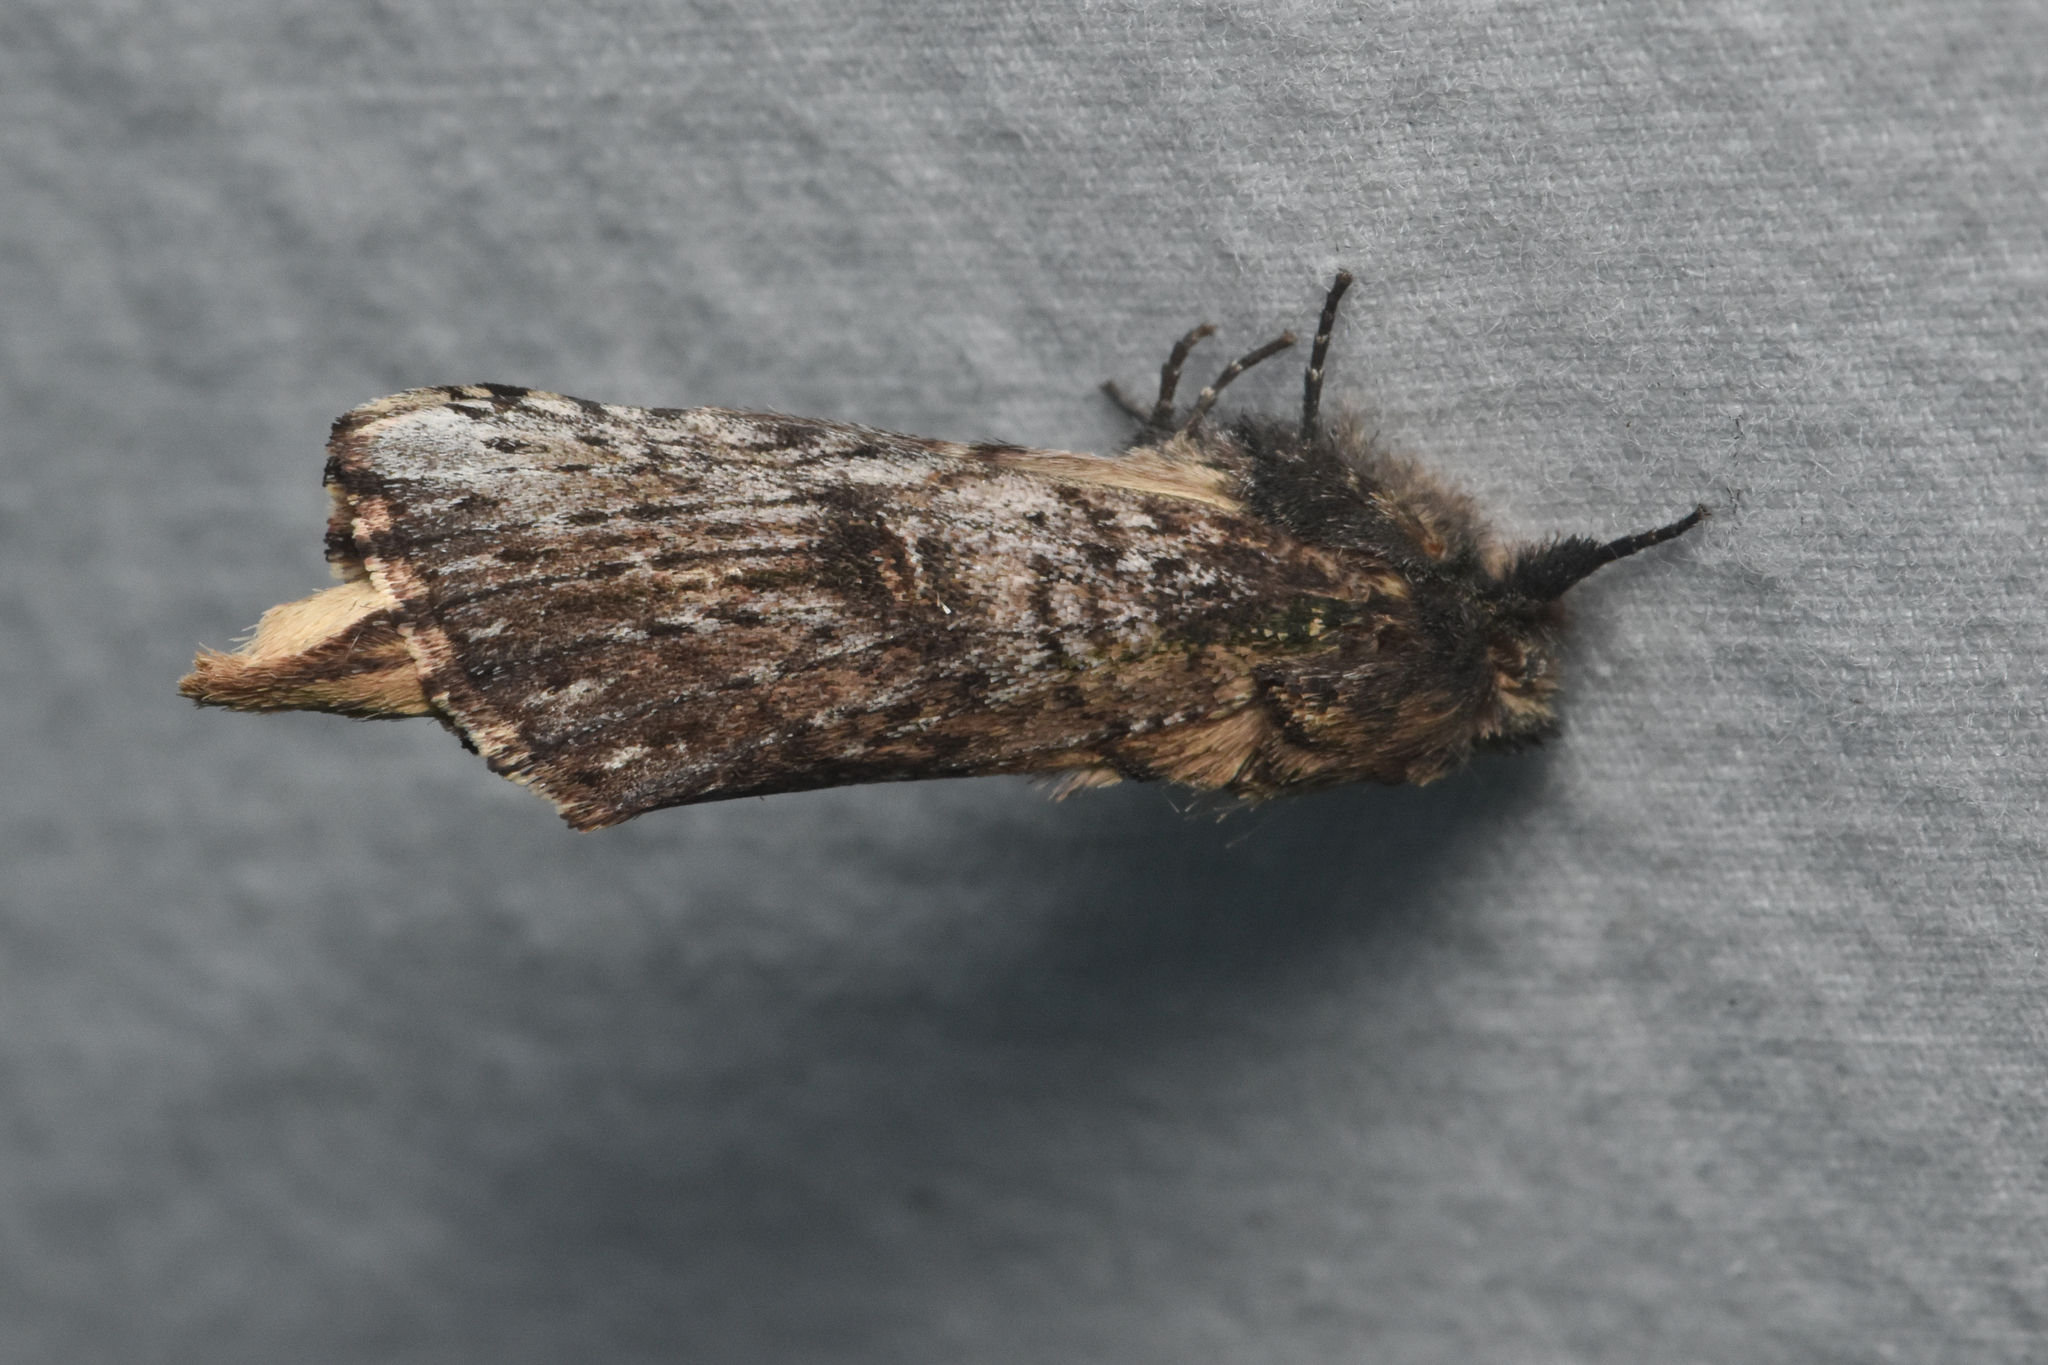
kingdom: Animalia
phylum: Arthropoda
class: Insecta
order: Lepidoptera
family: Notodontidae
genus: Schizura
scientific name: Schizura ipomaeae
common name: Morning-glory prominent
